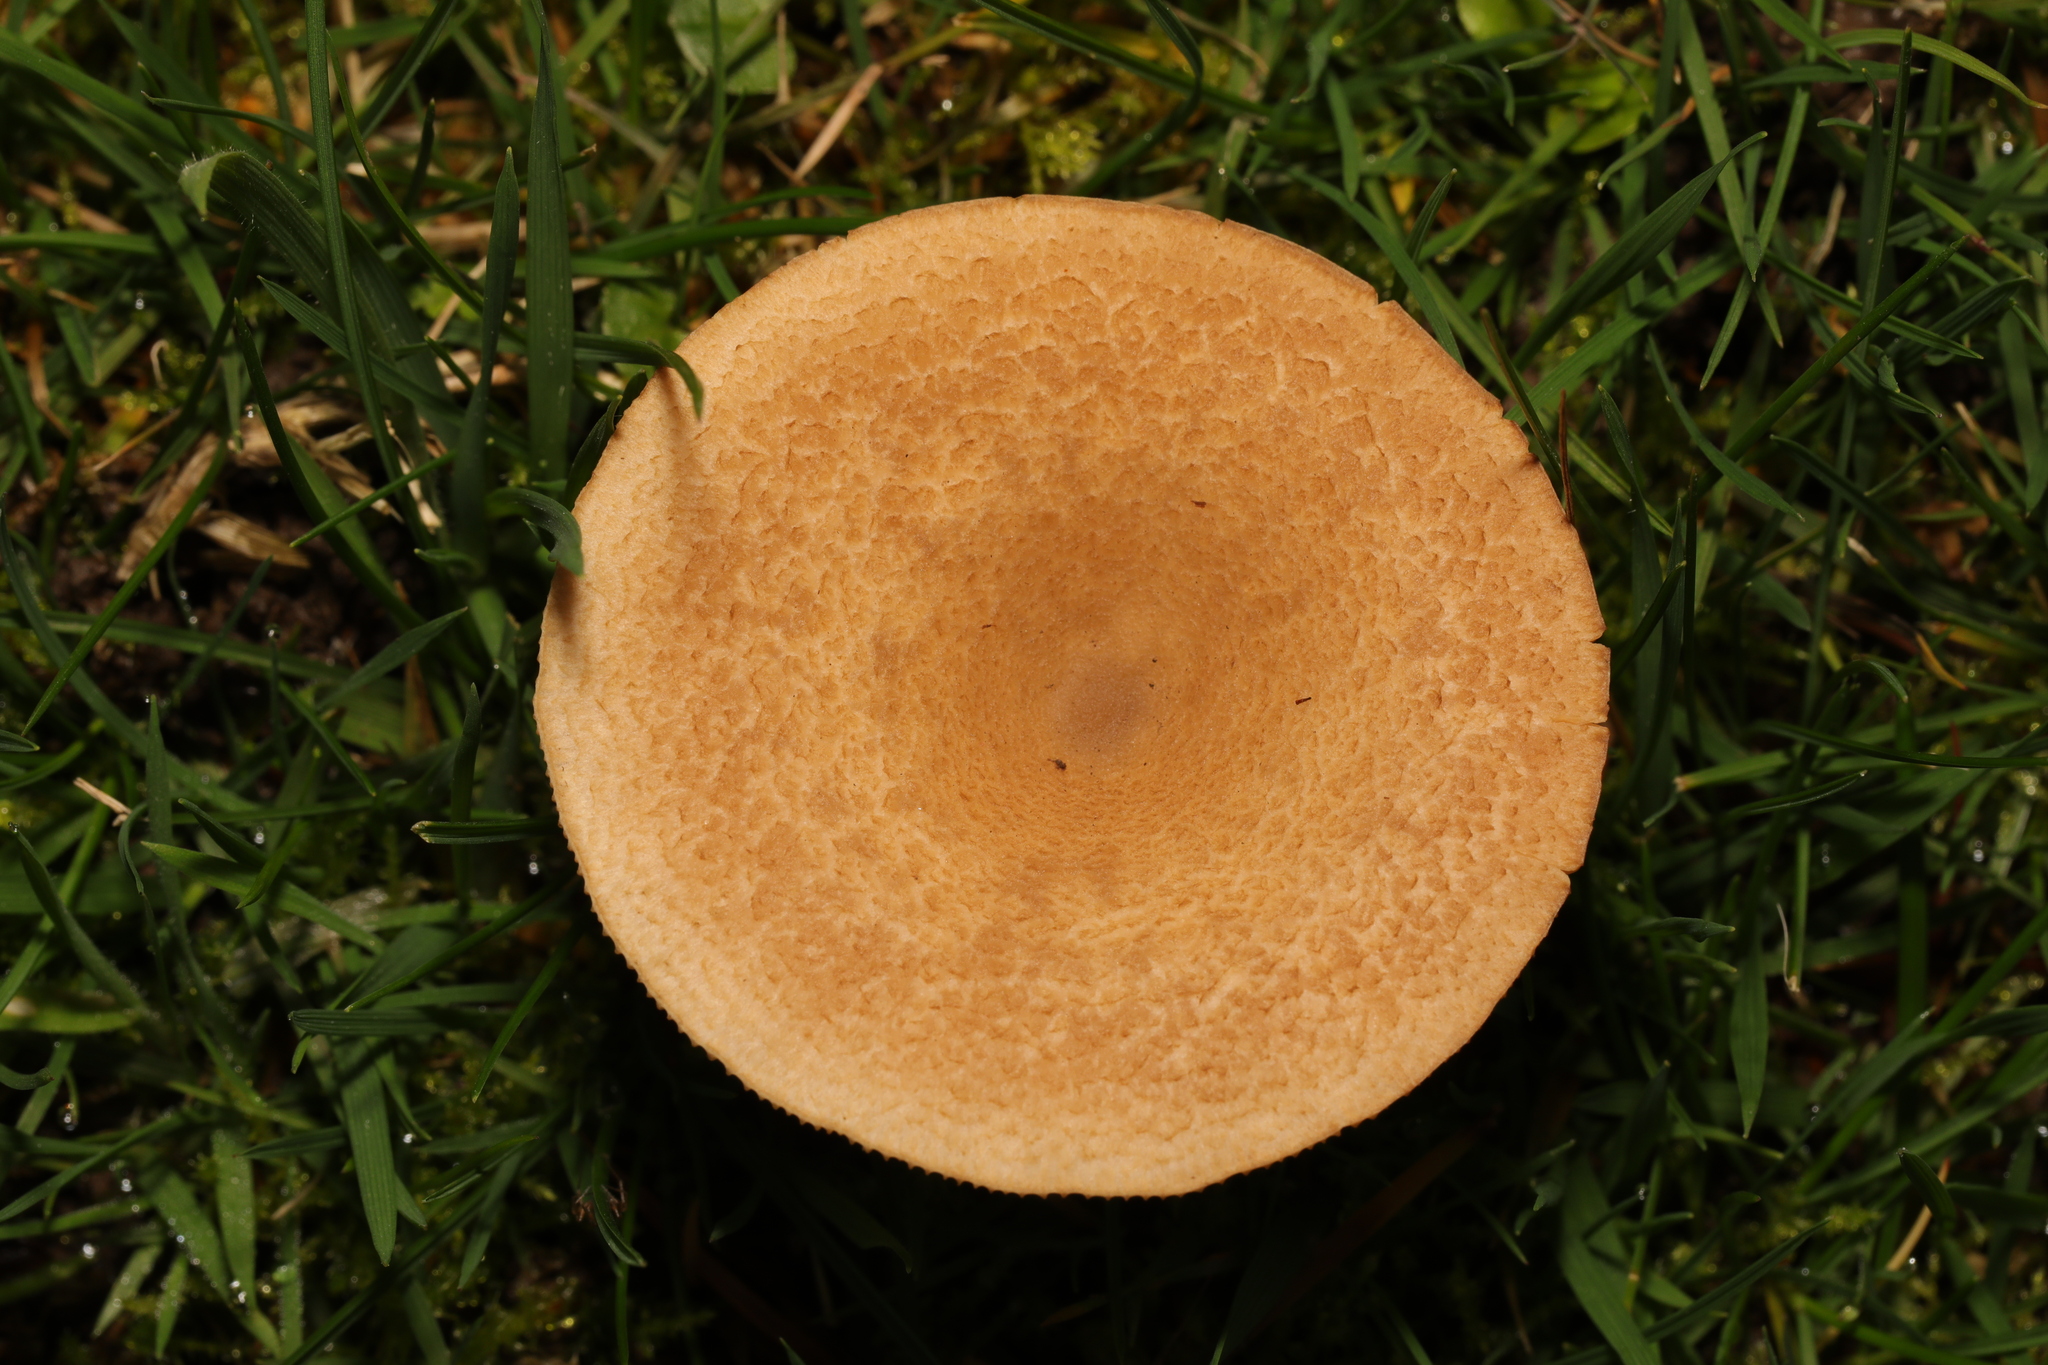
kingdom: Fungi
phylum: Basidiomycota
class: Agaricomycetes
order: Russulales
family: Russulaceae
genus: Lactarius
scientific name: Lactarius
